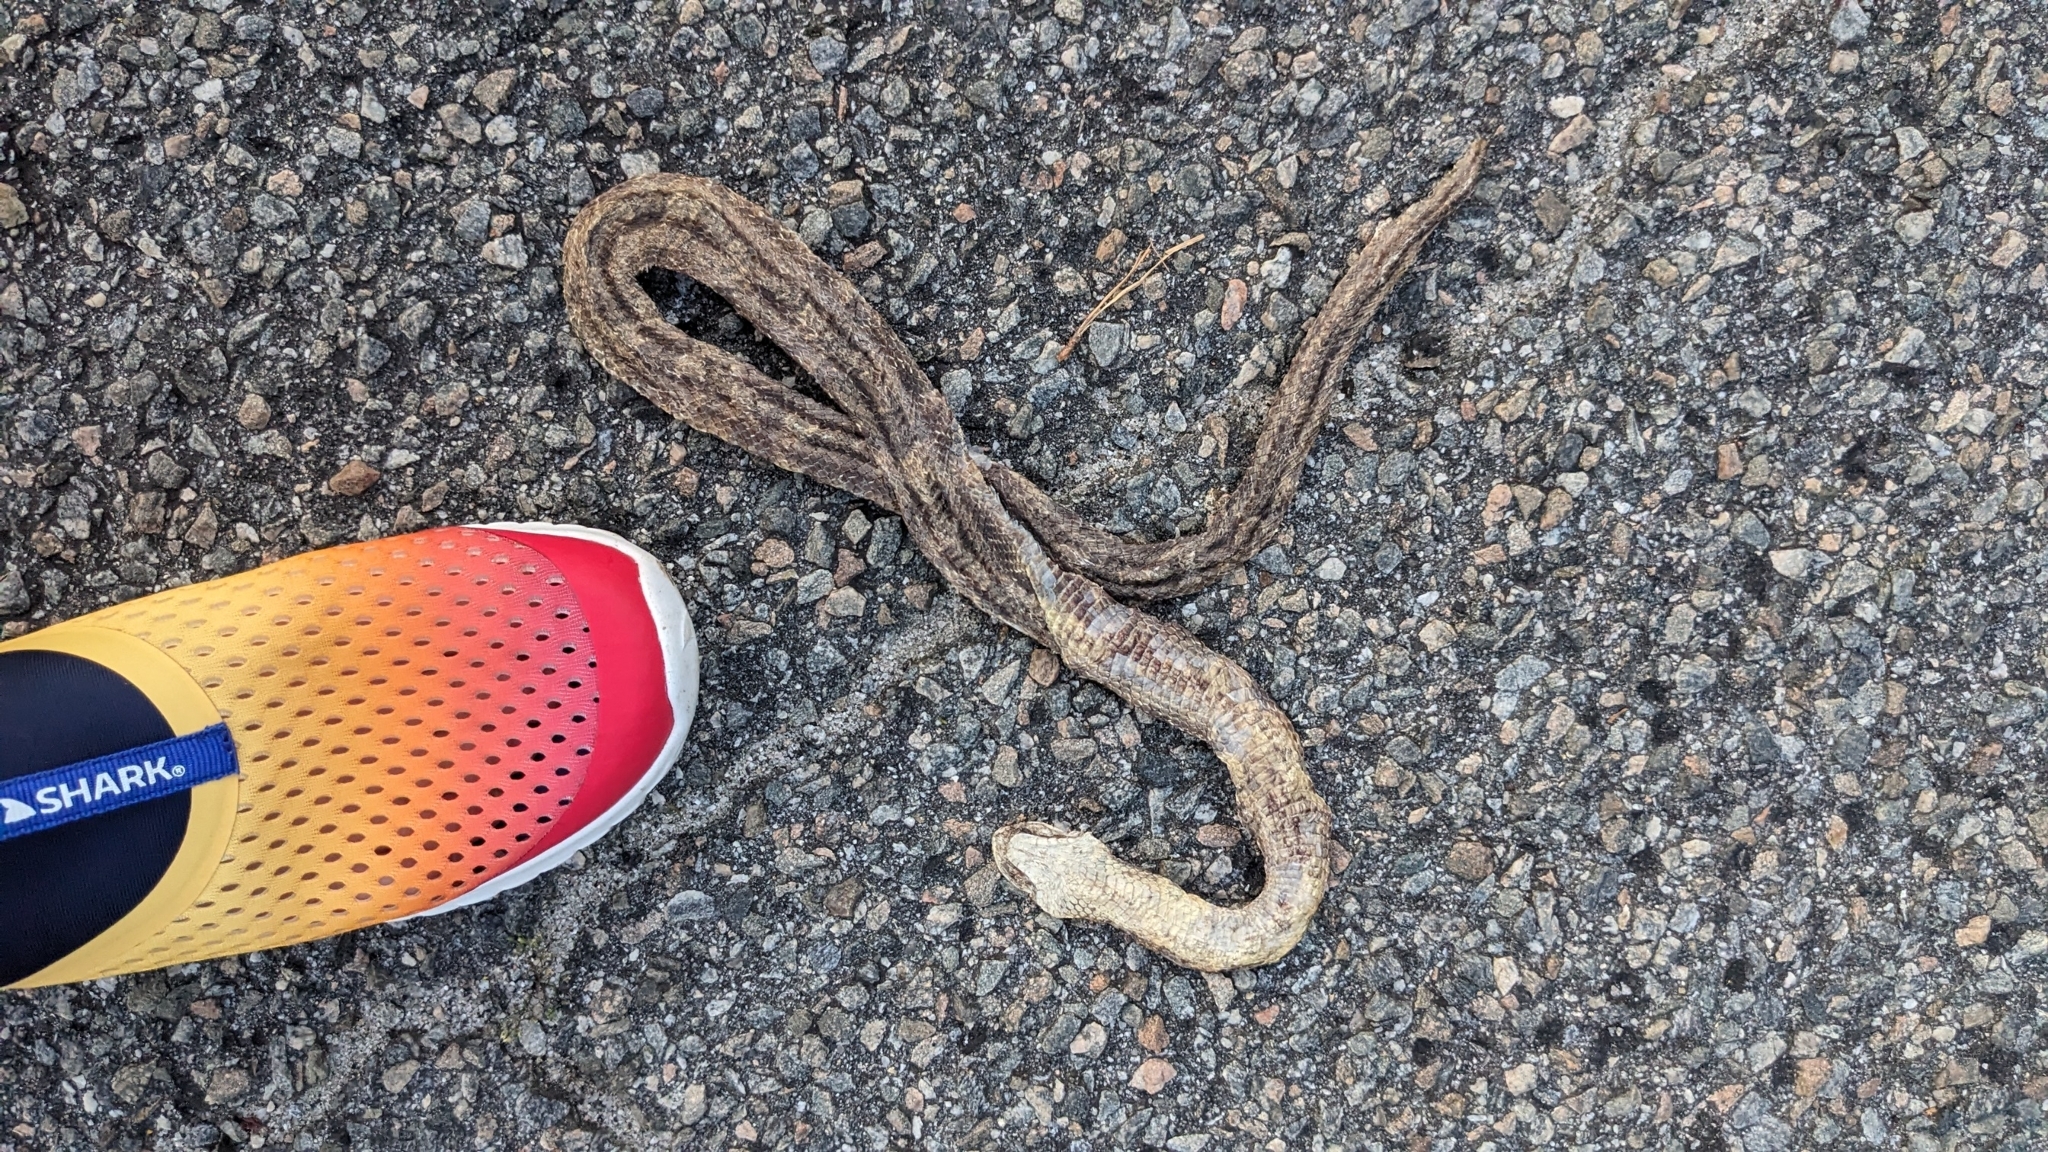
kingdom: Animalia
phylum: Chordata
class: Squamata
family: Colubridae
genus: Pantherophis
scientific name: Pantherophis alleghaniensis
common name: Eastern rat snake
